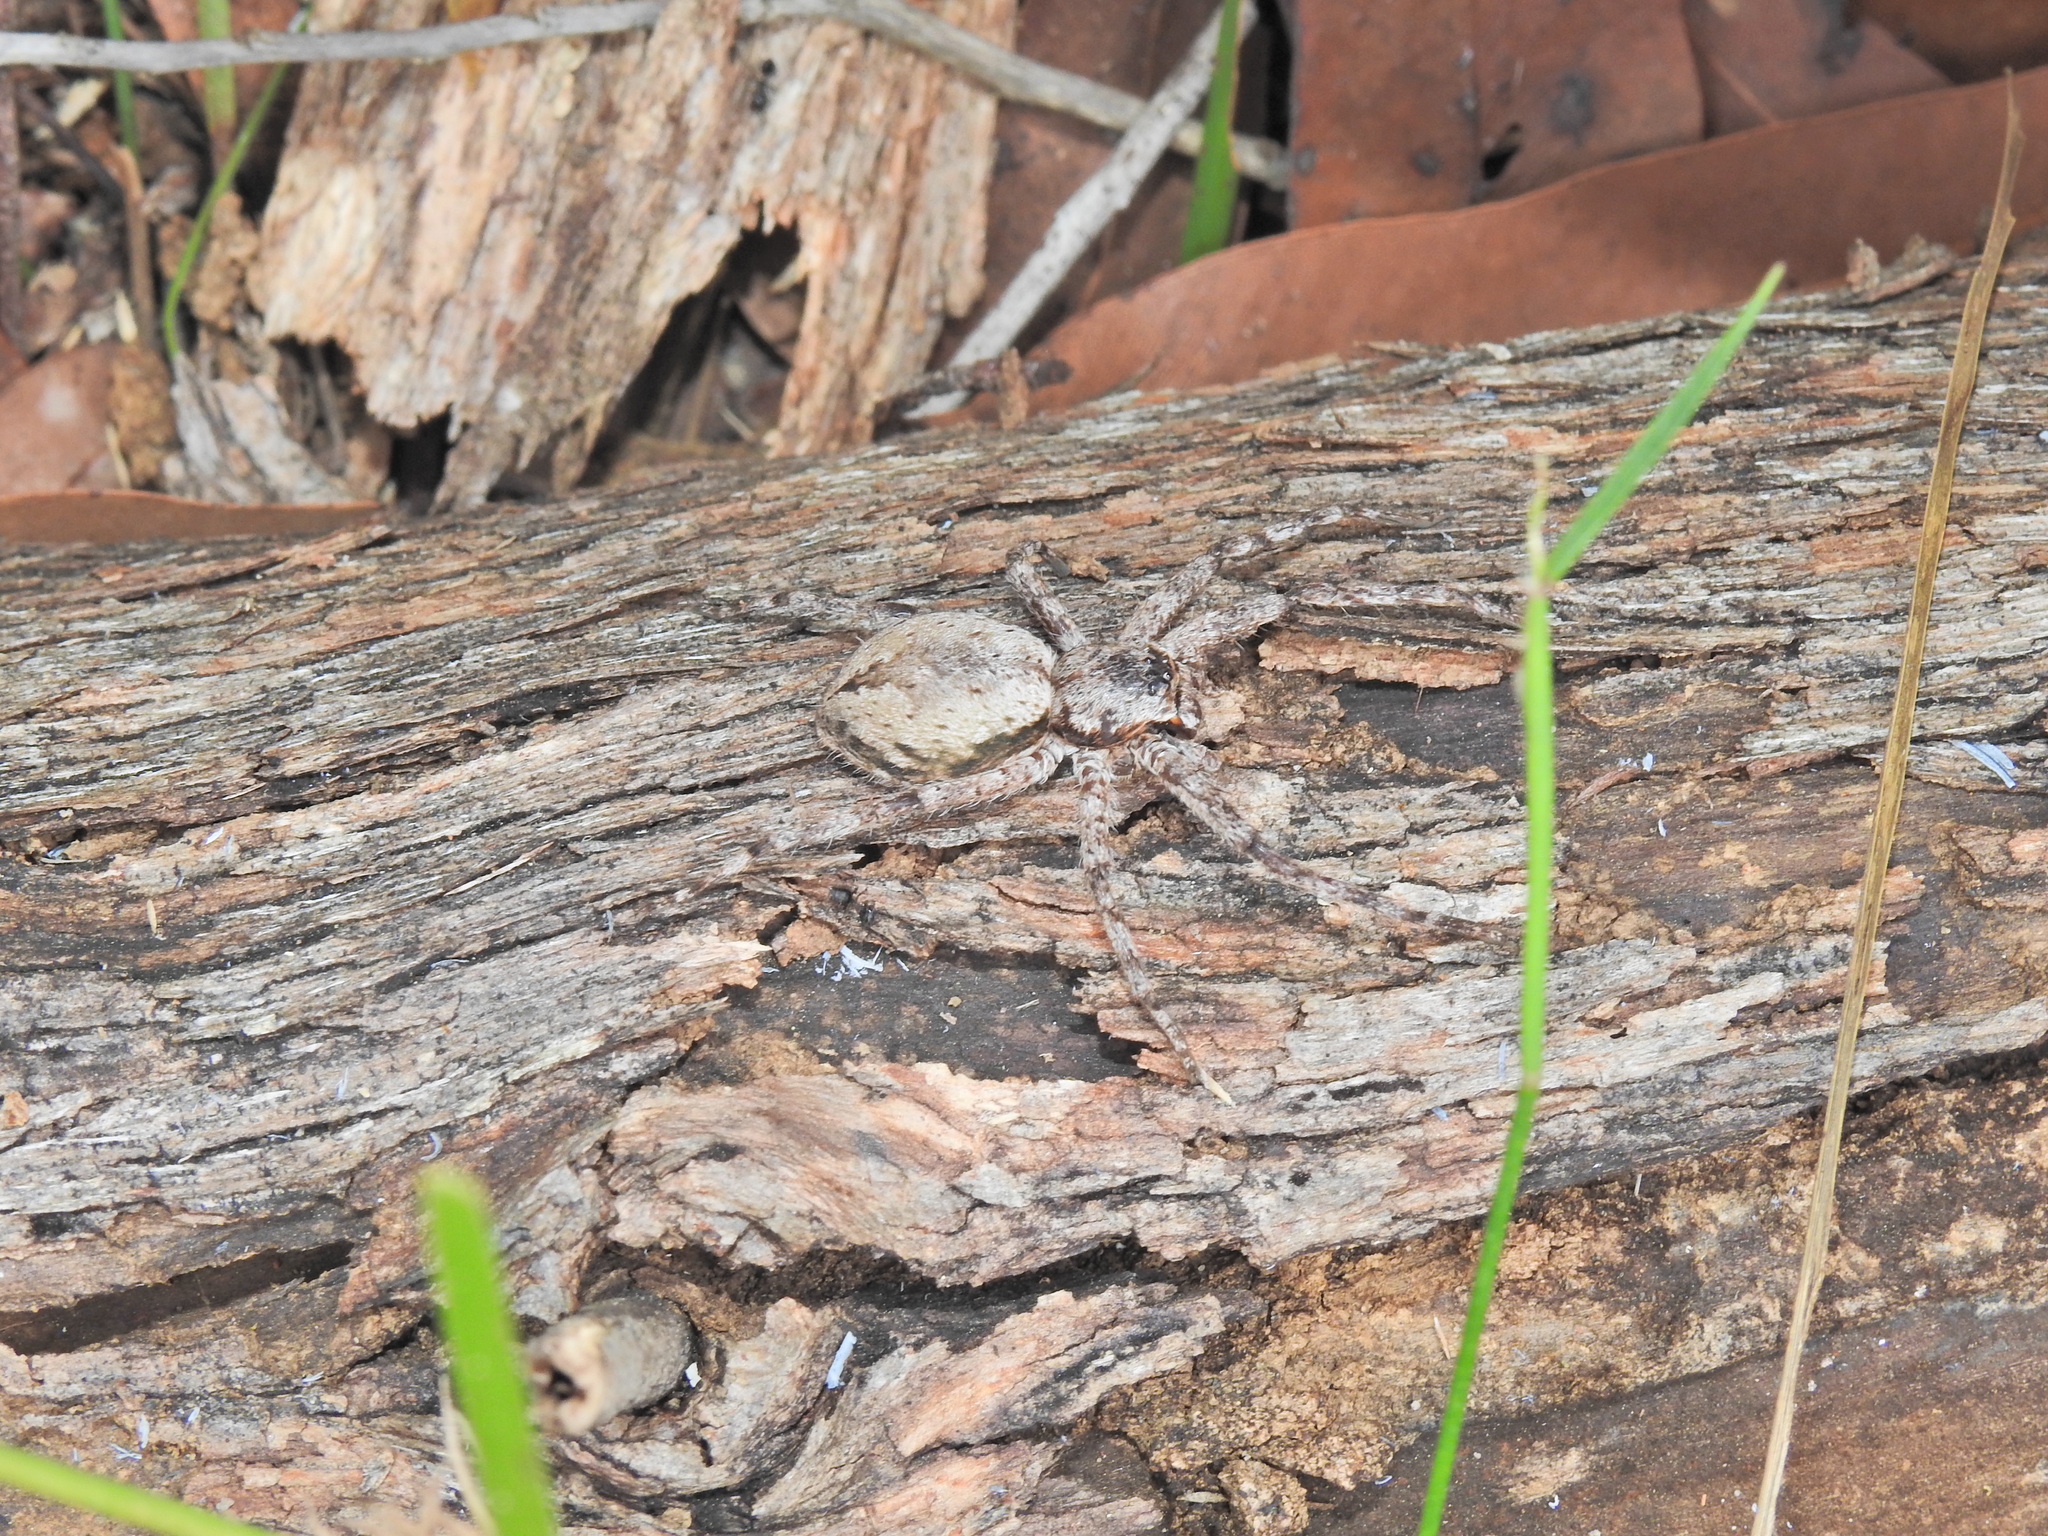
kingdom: Animalia
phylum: Arthropoda
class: Arachnida
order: Araneae
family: Sparassidae
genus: Pediana
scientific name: Pediana regina
